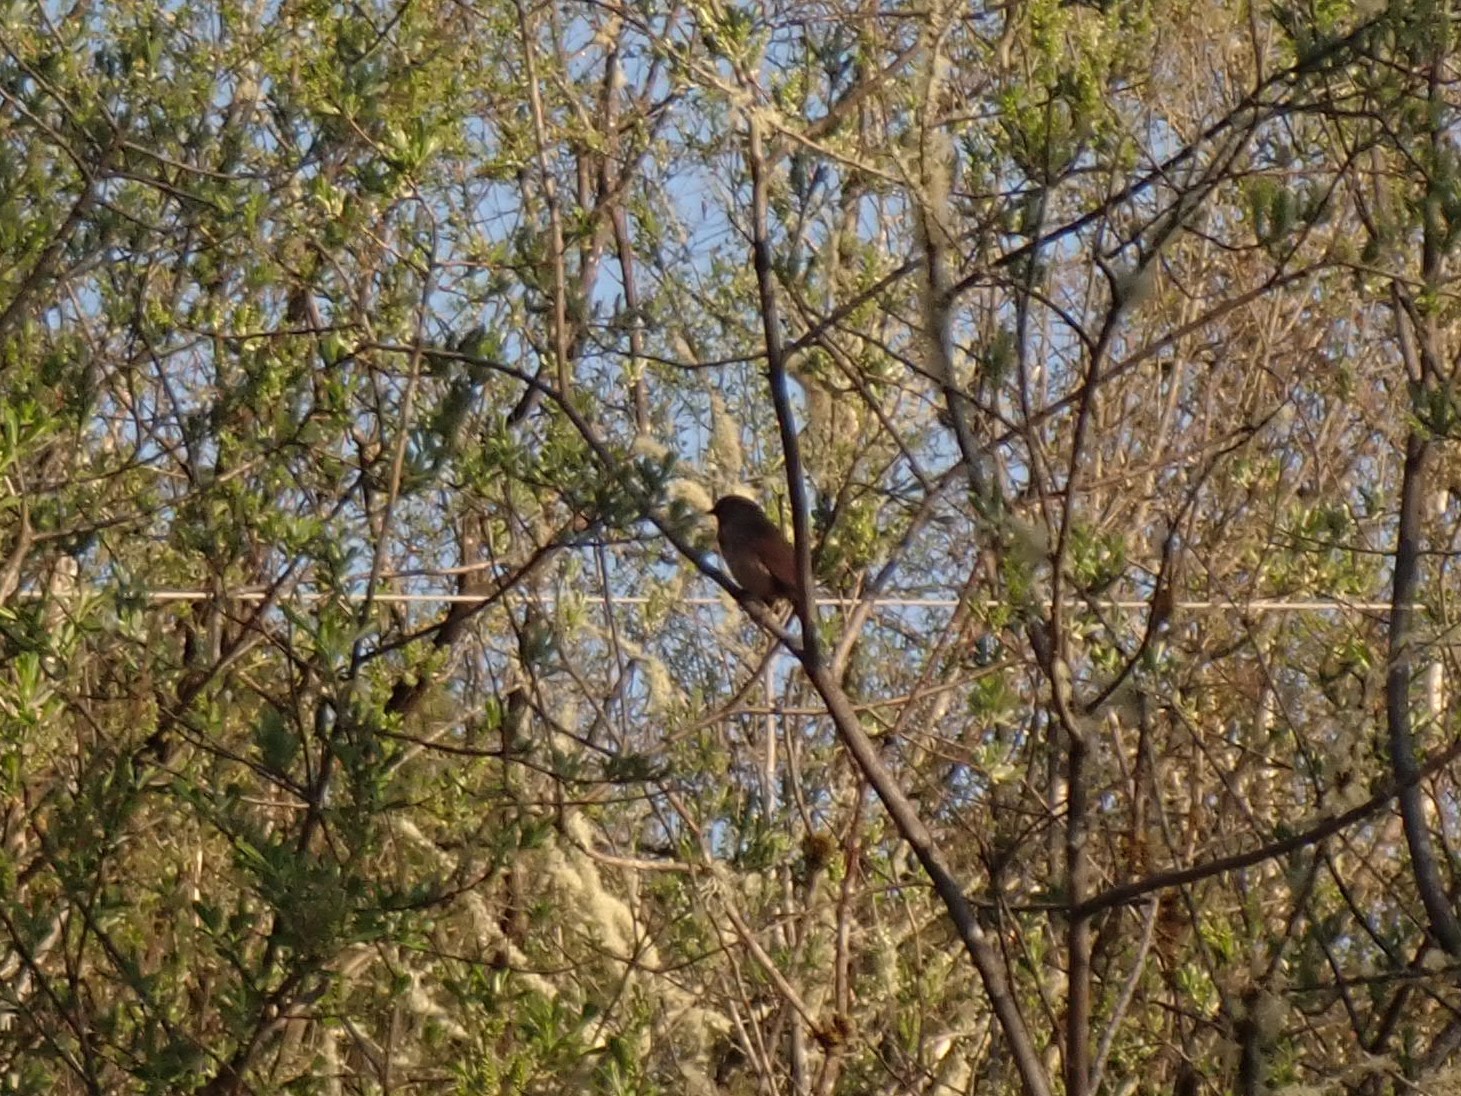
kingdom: Animalia
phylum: Chordata
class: Aves
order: Passeriformes
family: Passerellidae
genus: Melospiza
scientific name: Melospiza melodia
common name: Song sparrow
